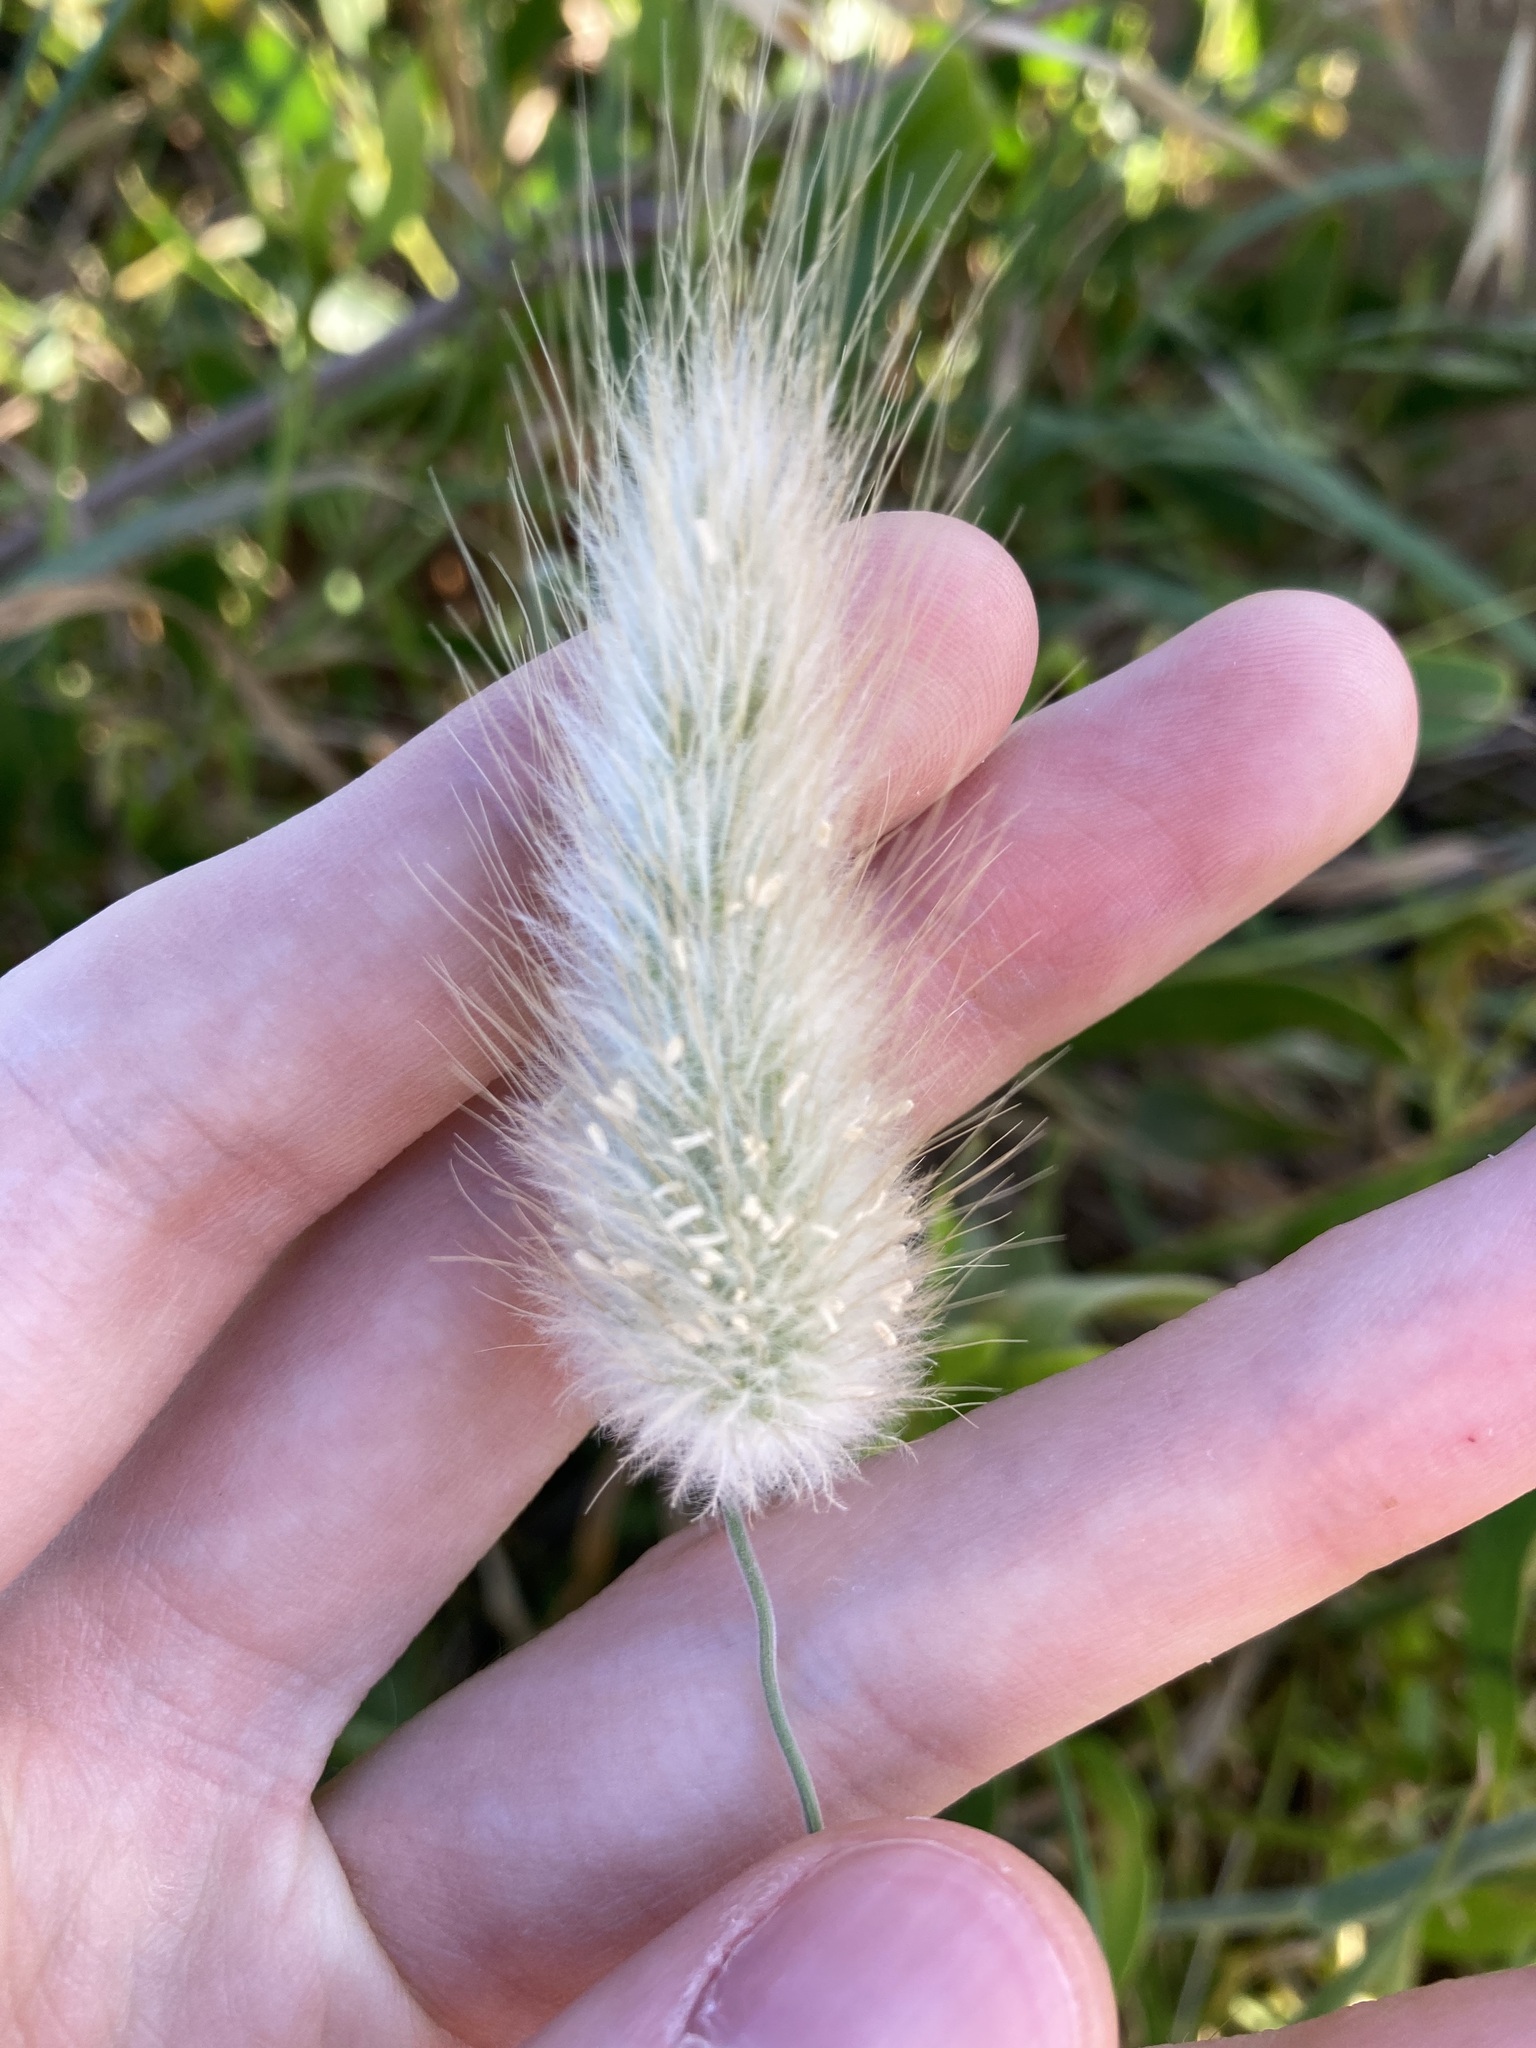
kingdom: Plantae
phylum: Tracheophyta
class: Liliopsida
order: Poales
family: Poaceae
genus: Lagurus
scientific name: Lagurus ovatus
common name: Hare's-tail
